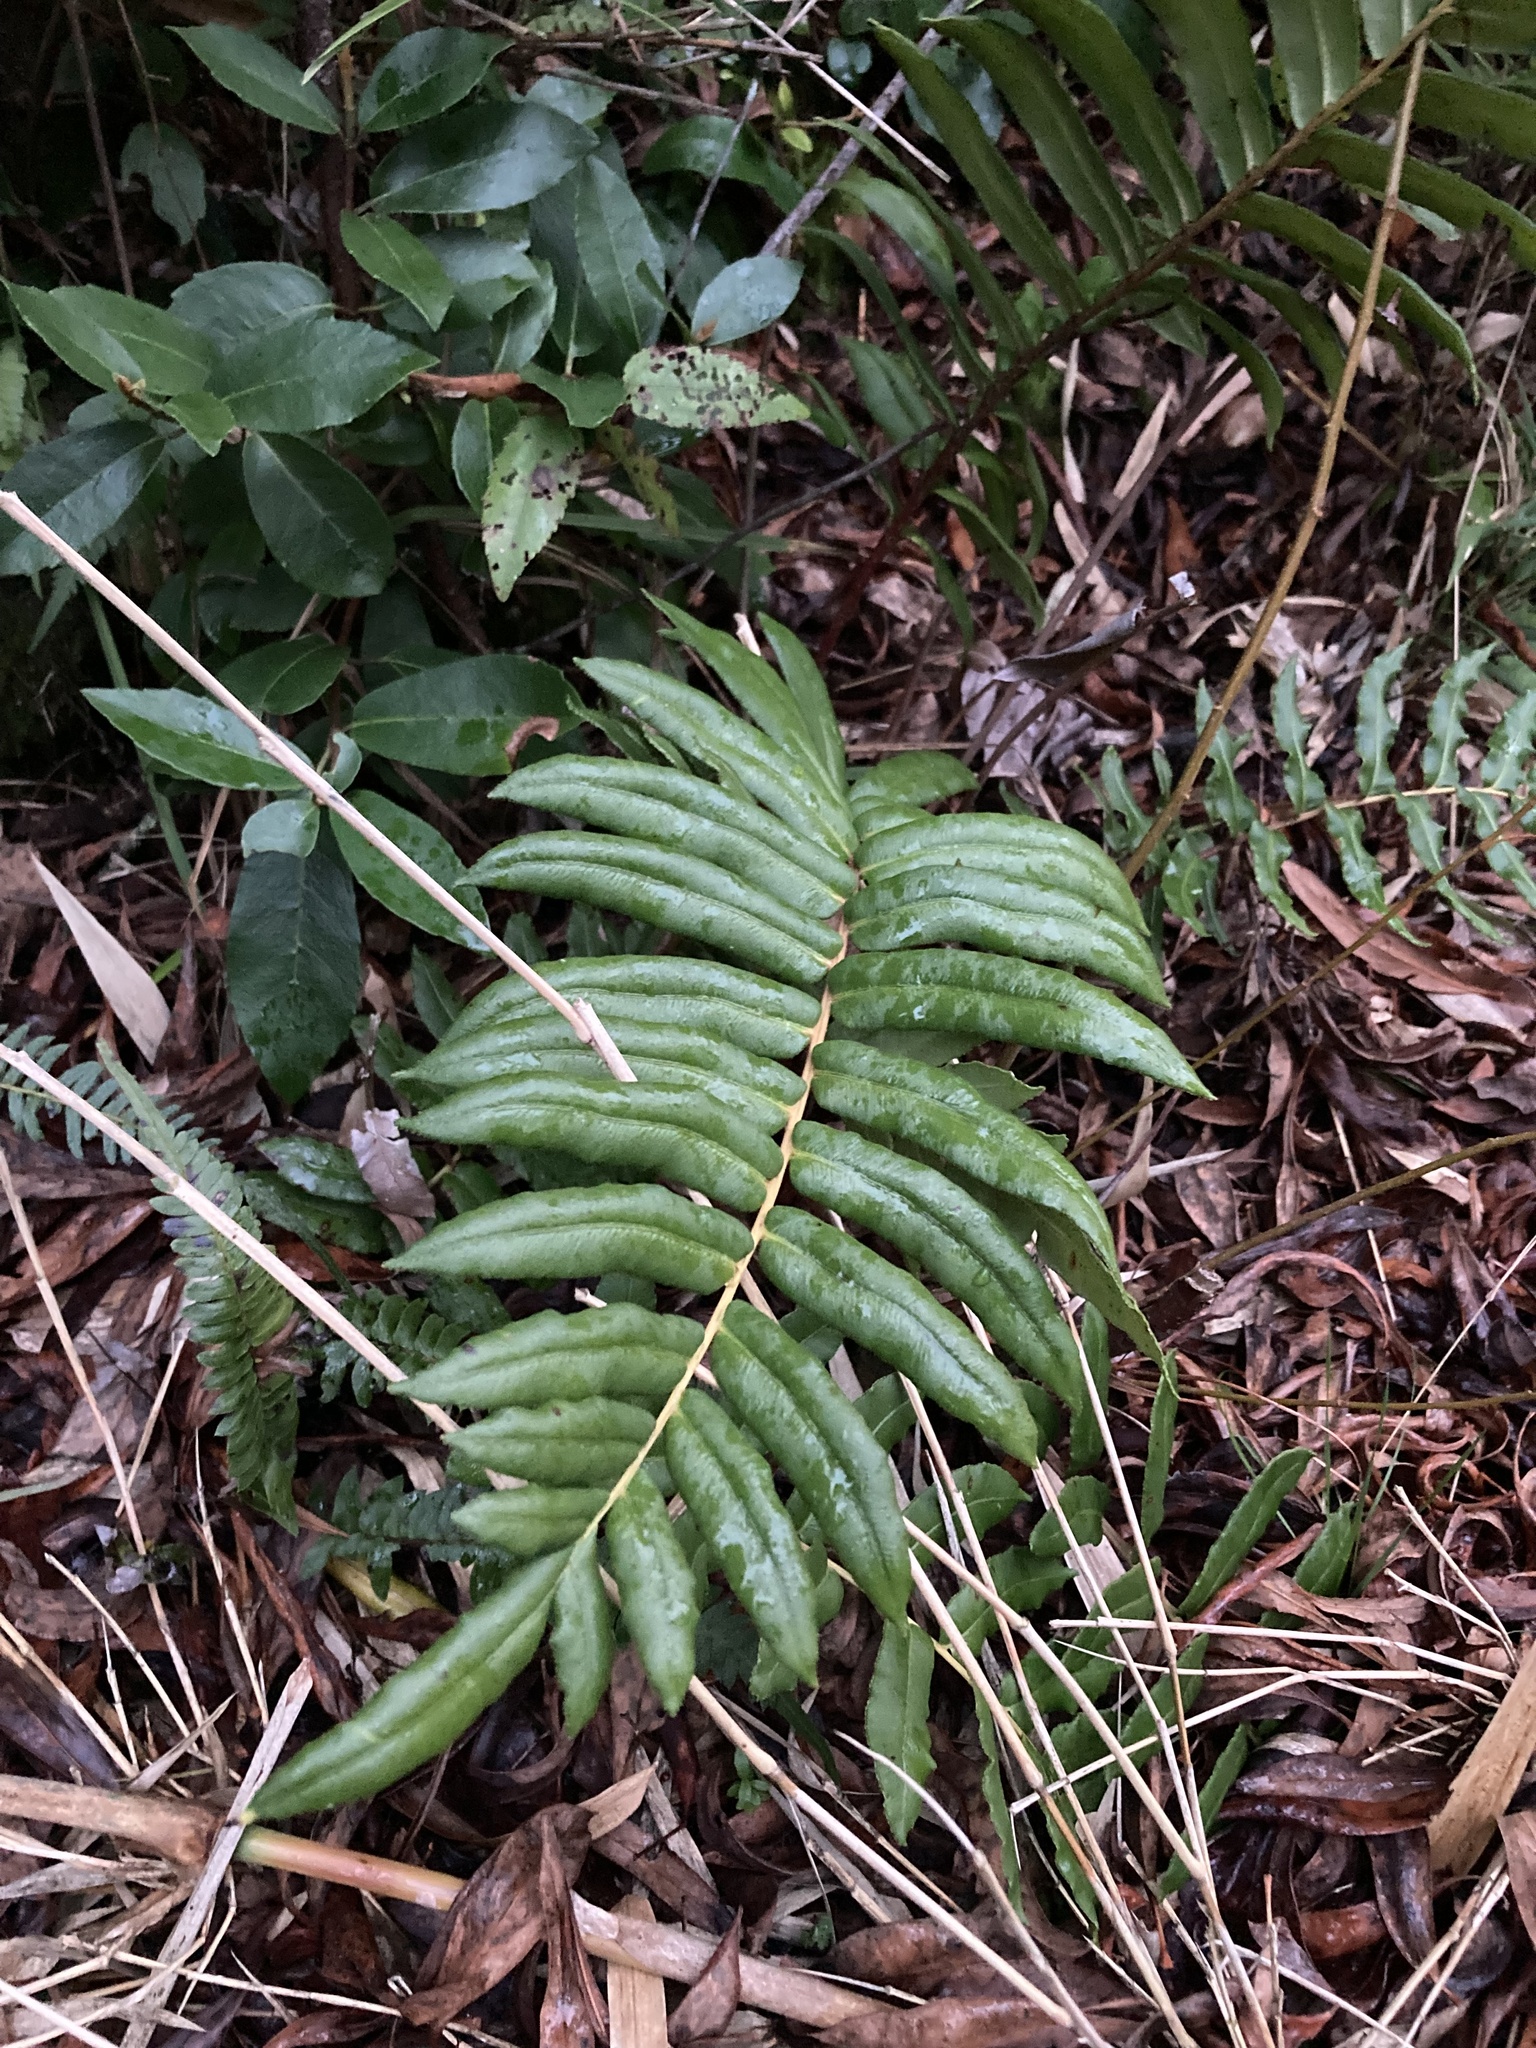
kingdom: Plantae
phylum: Tracheophyta
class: Polypodiopsida
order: Polypodiales
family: Blechnaceae
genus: Parablechnum
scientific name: Parablechnum chilense
